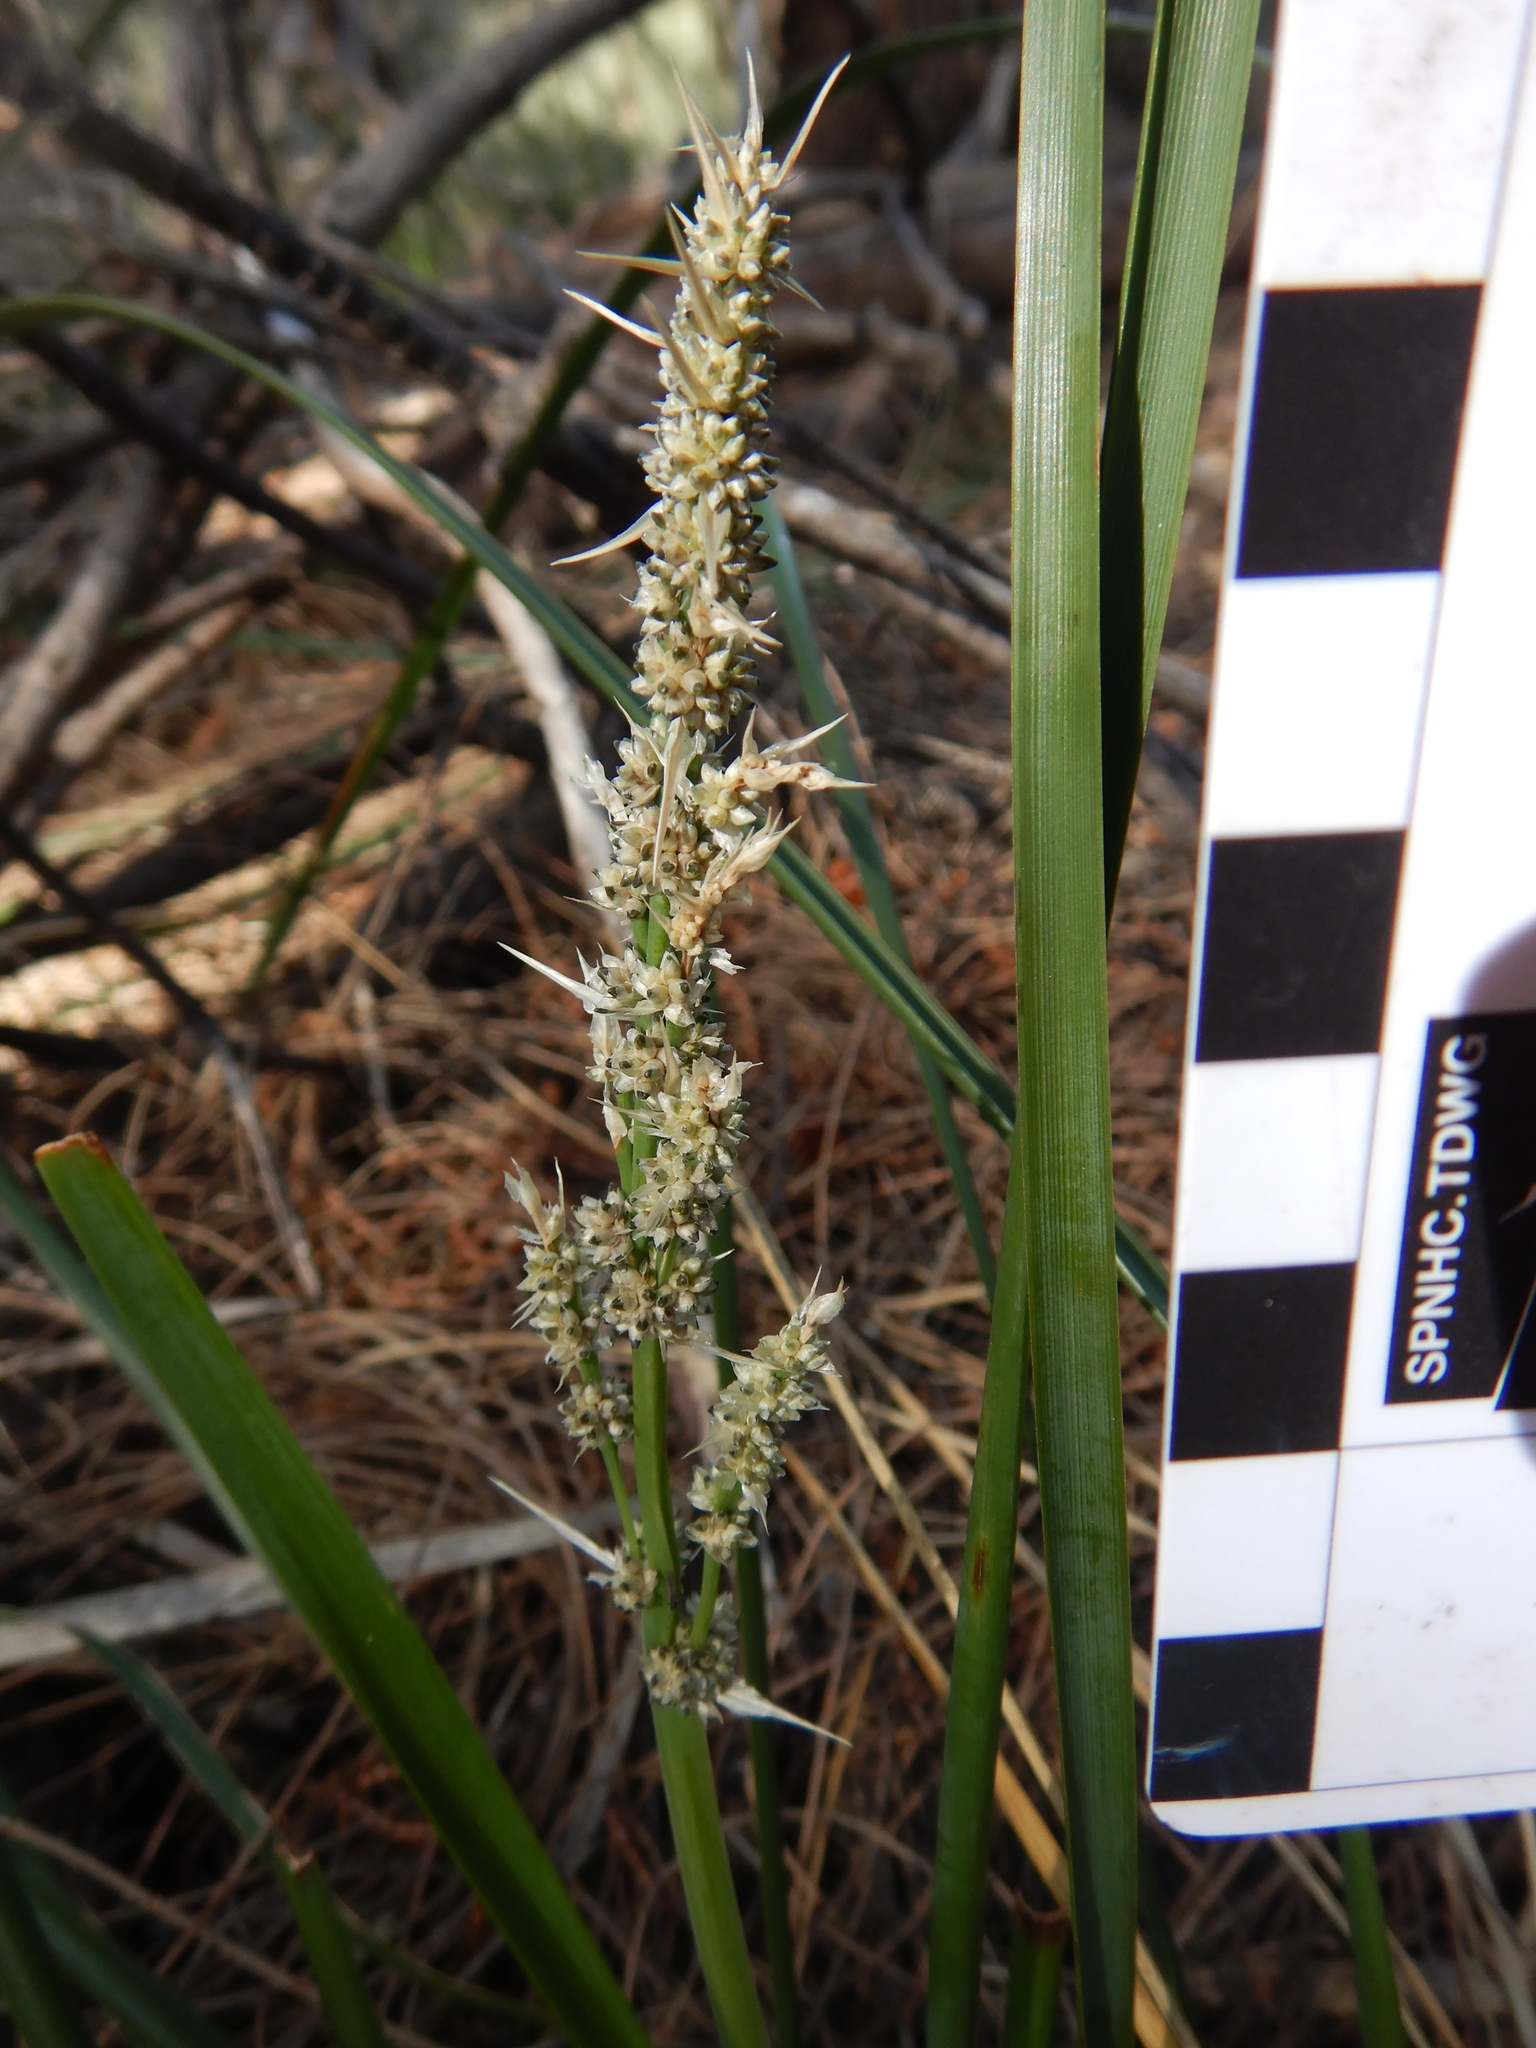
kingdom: Plantae
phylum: Tracheophyta
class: Liliopsida
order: Asparagales
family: Asparagaceae
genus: Lomandra
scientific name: Lomandra longifolia
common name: Longleaf mat-rush
